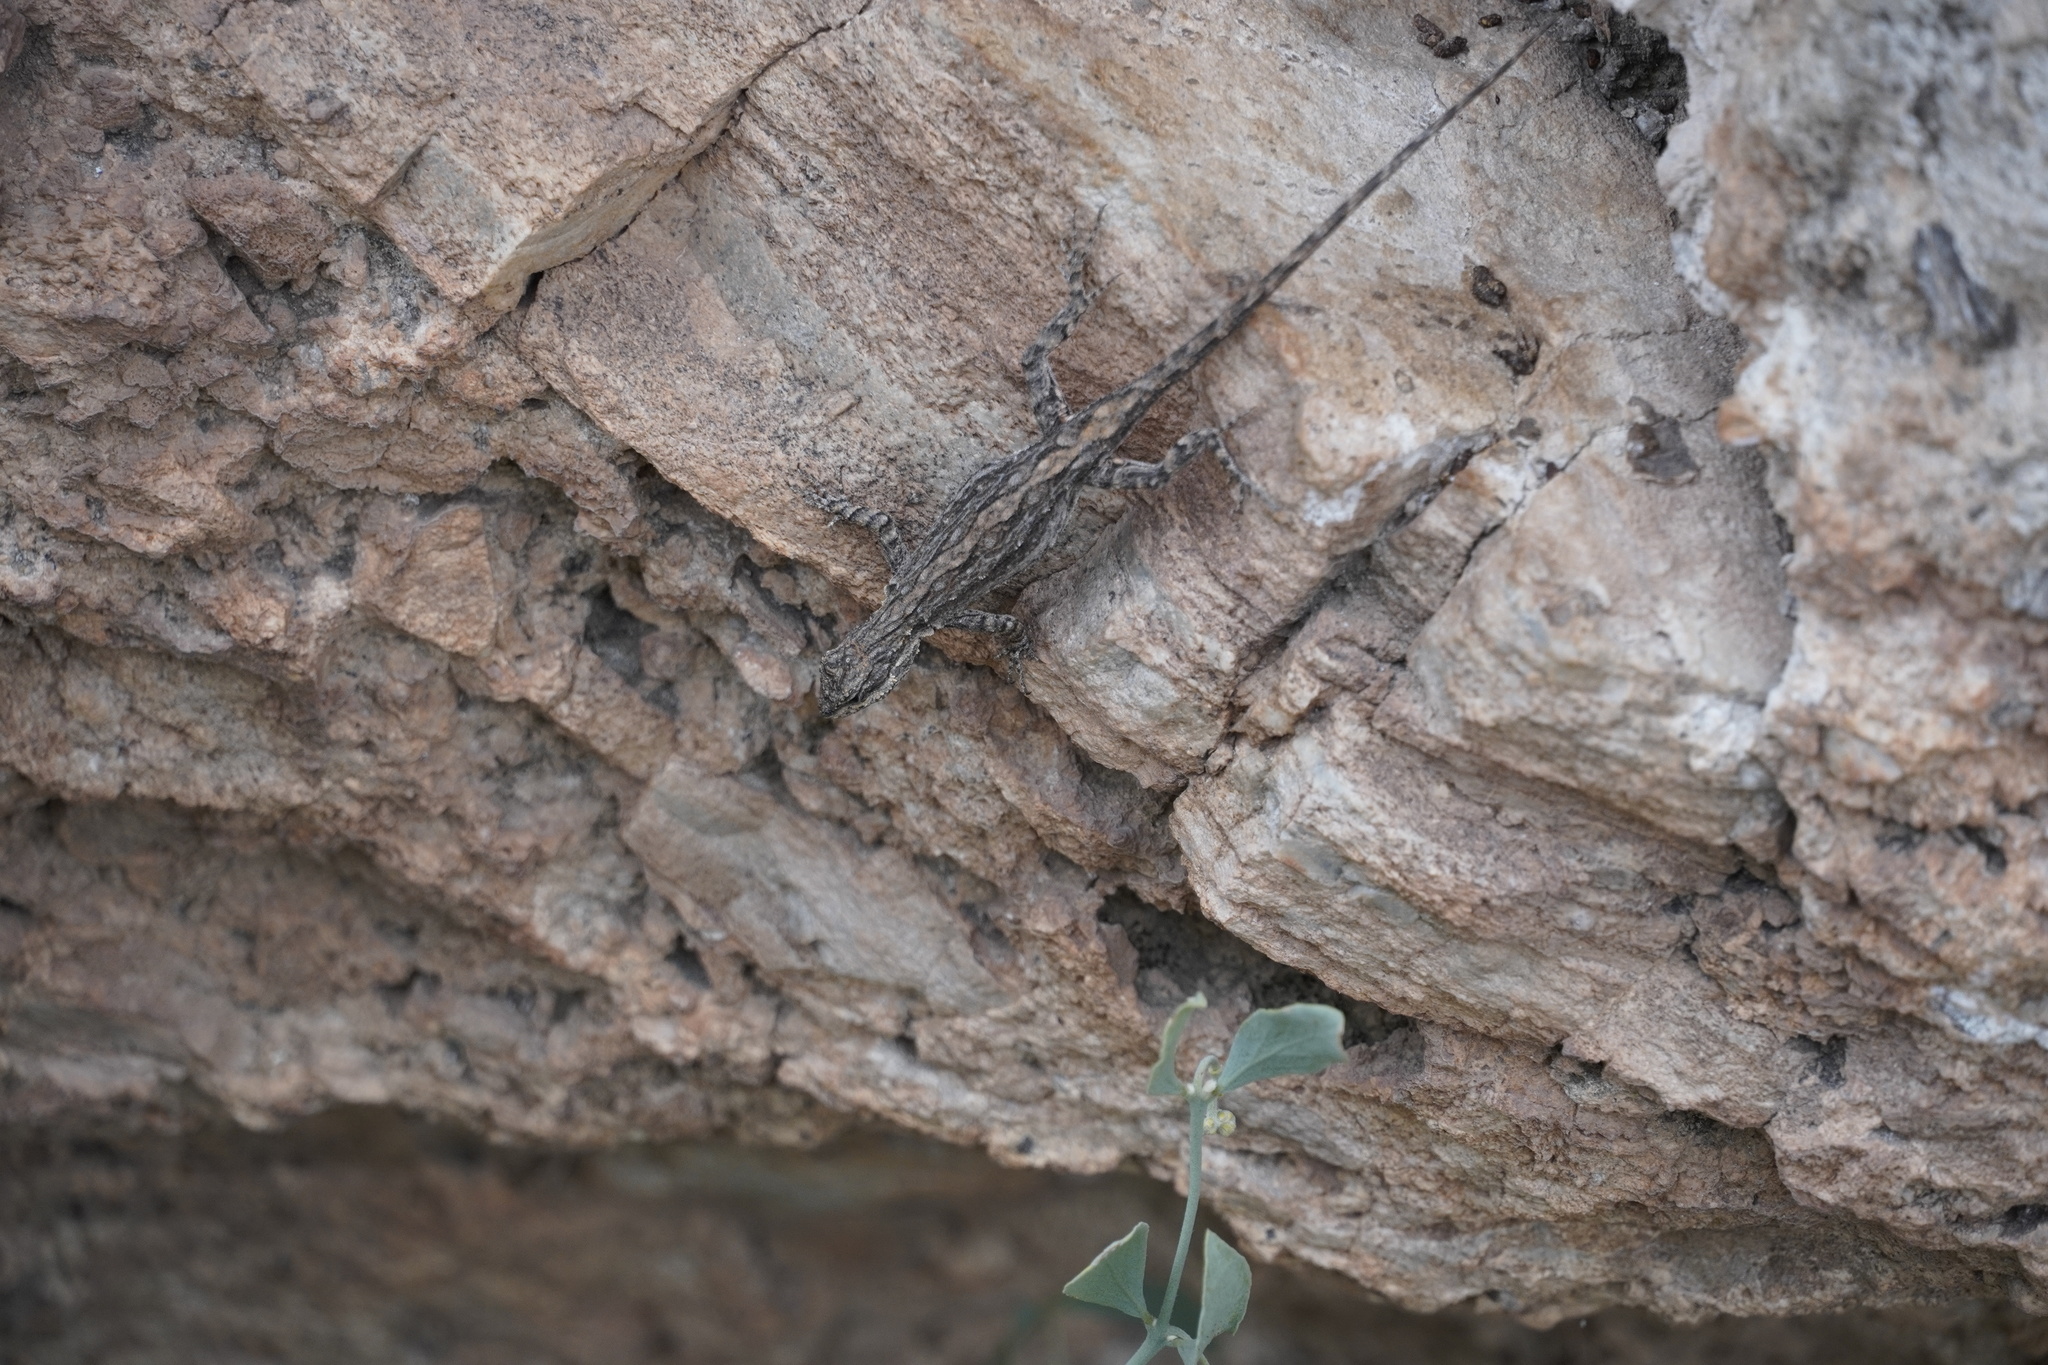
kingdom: Animalia
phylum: Chordata
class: Squamata
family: Phrynosomatidae
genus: Urosaurus
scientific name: Urosaurus ornatus
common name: Ornate tree lizard
